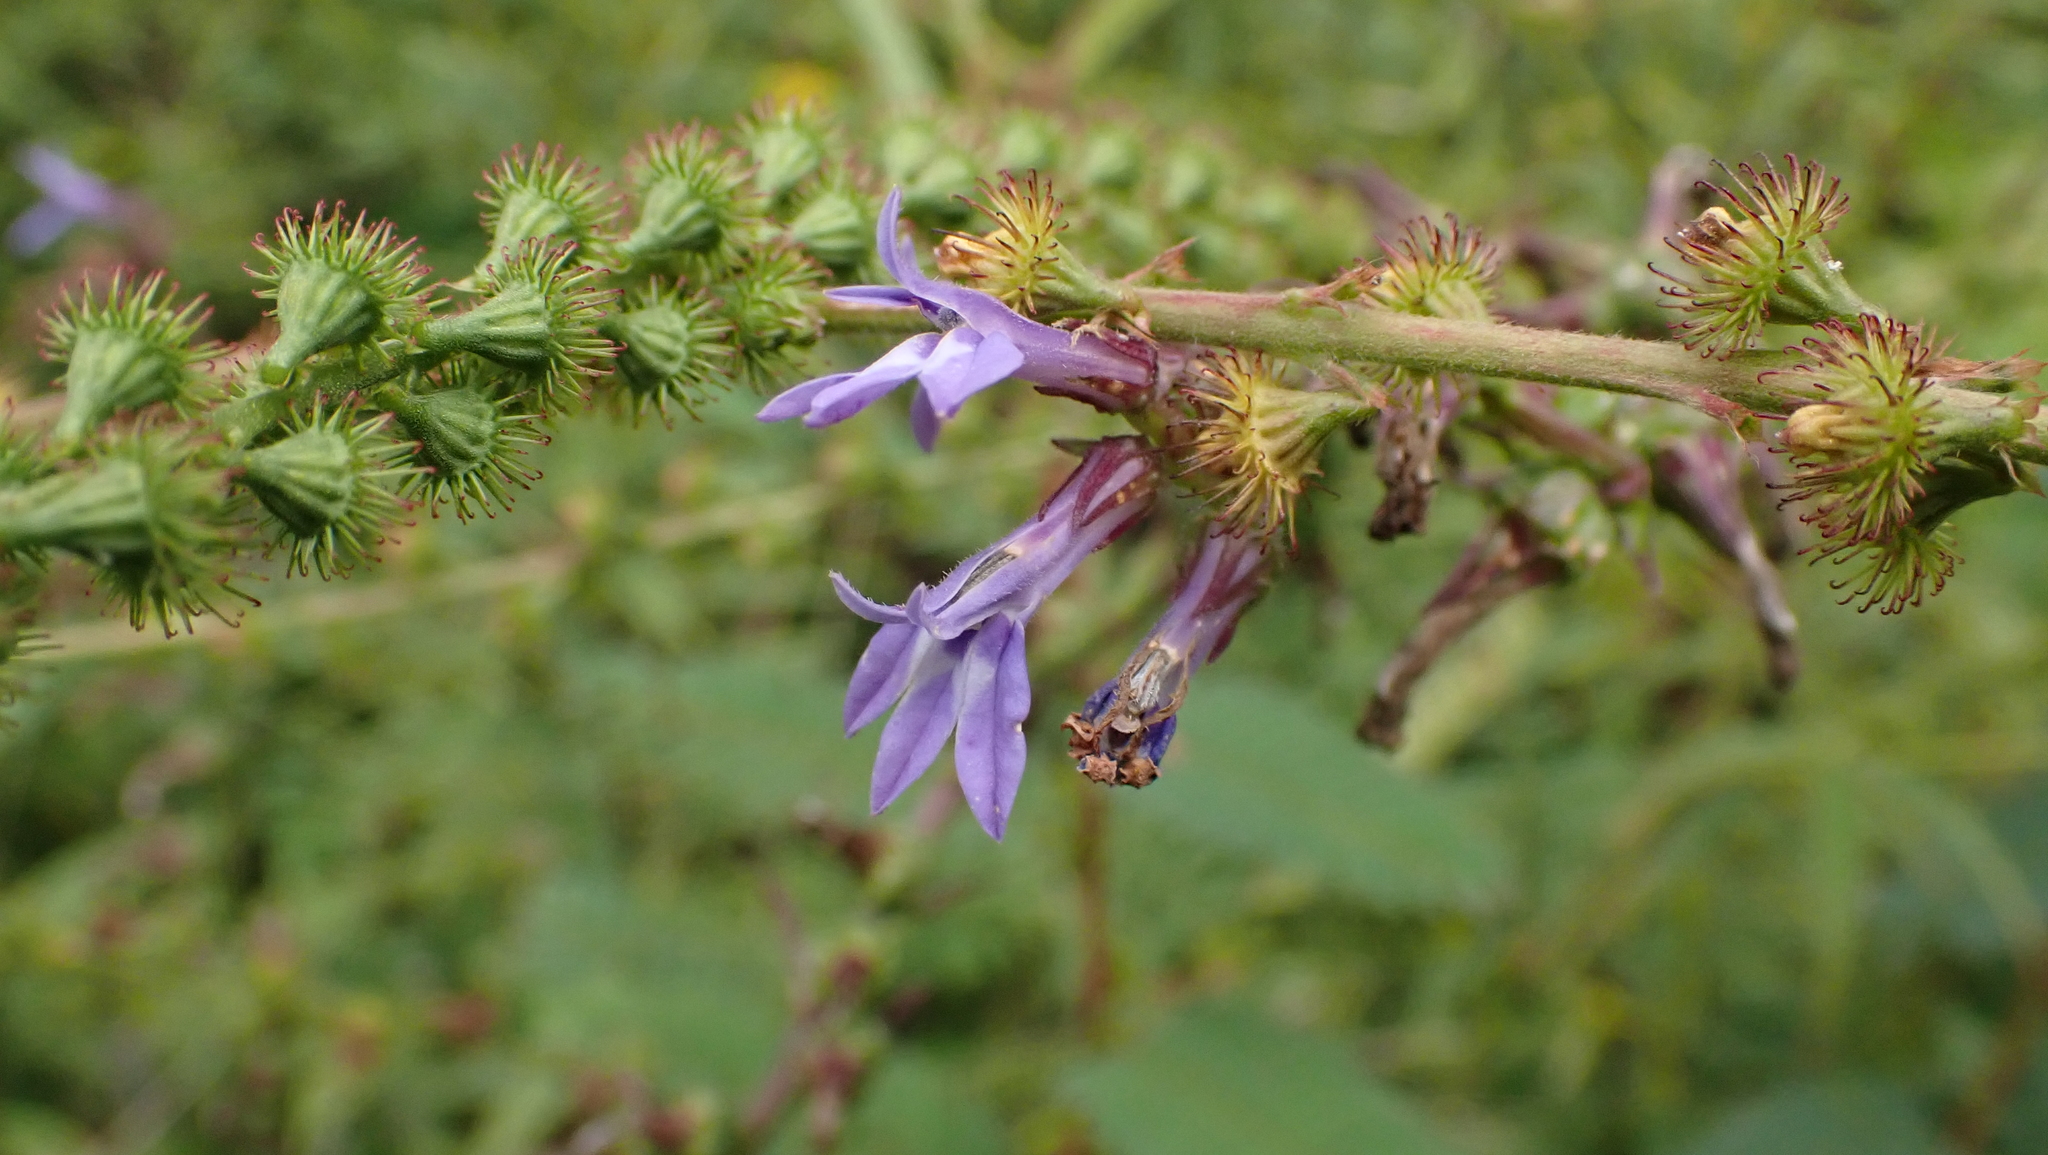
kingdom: Plantae
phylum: Tracheophyta
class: Magnoliopsida
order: Asterales
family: Campanulaceae
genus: Lobelia
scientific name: Lobelia puberula
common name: Purple dewdrop
